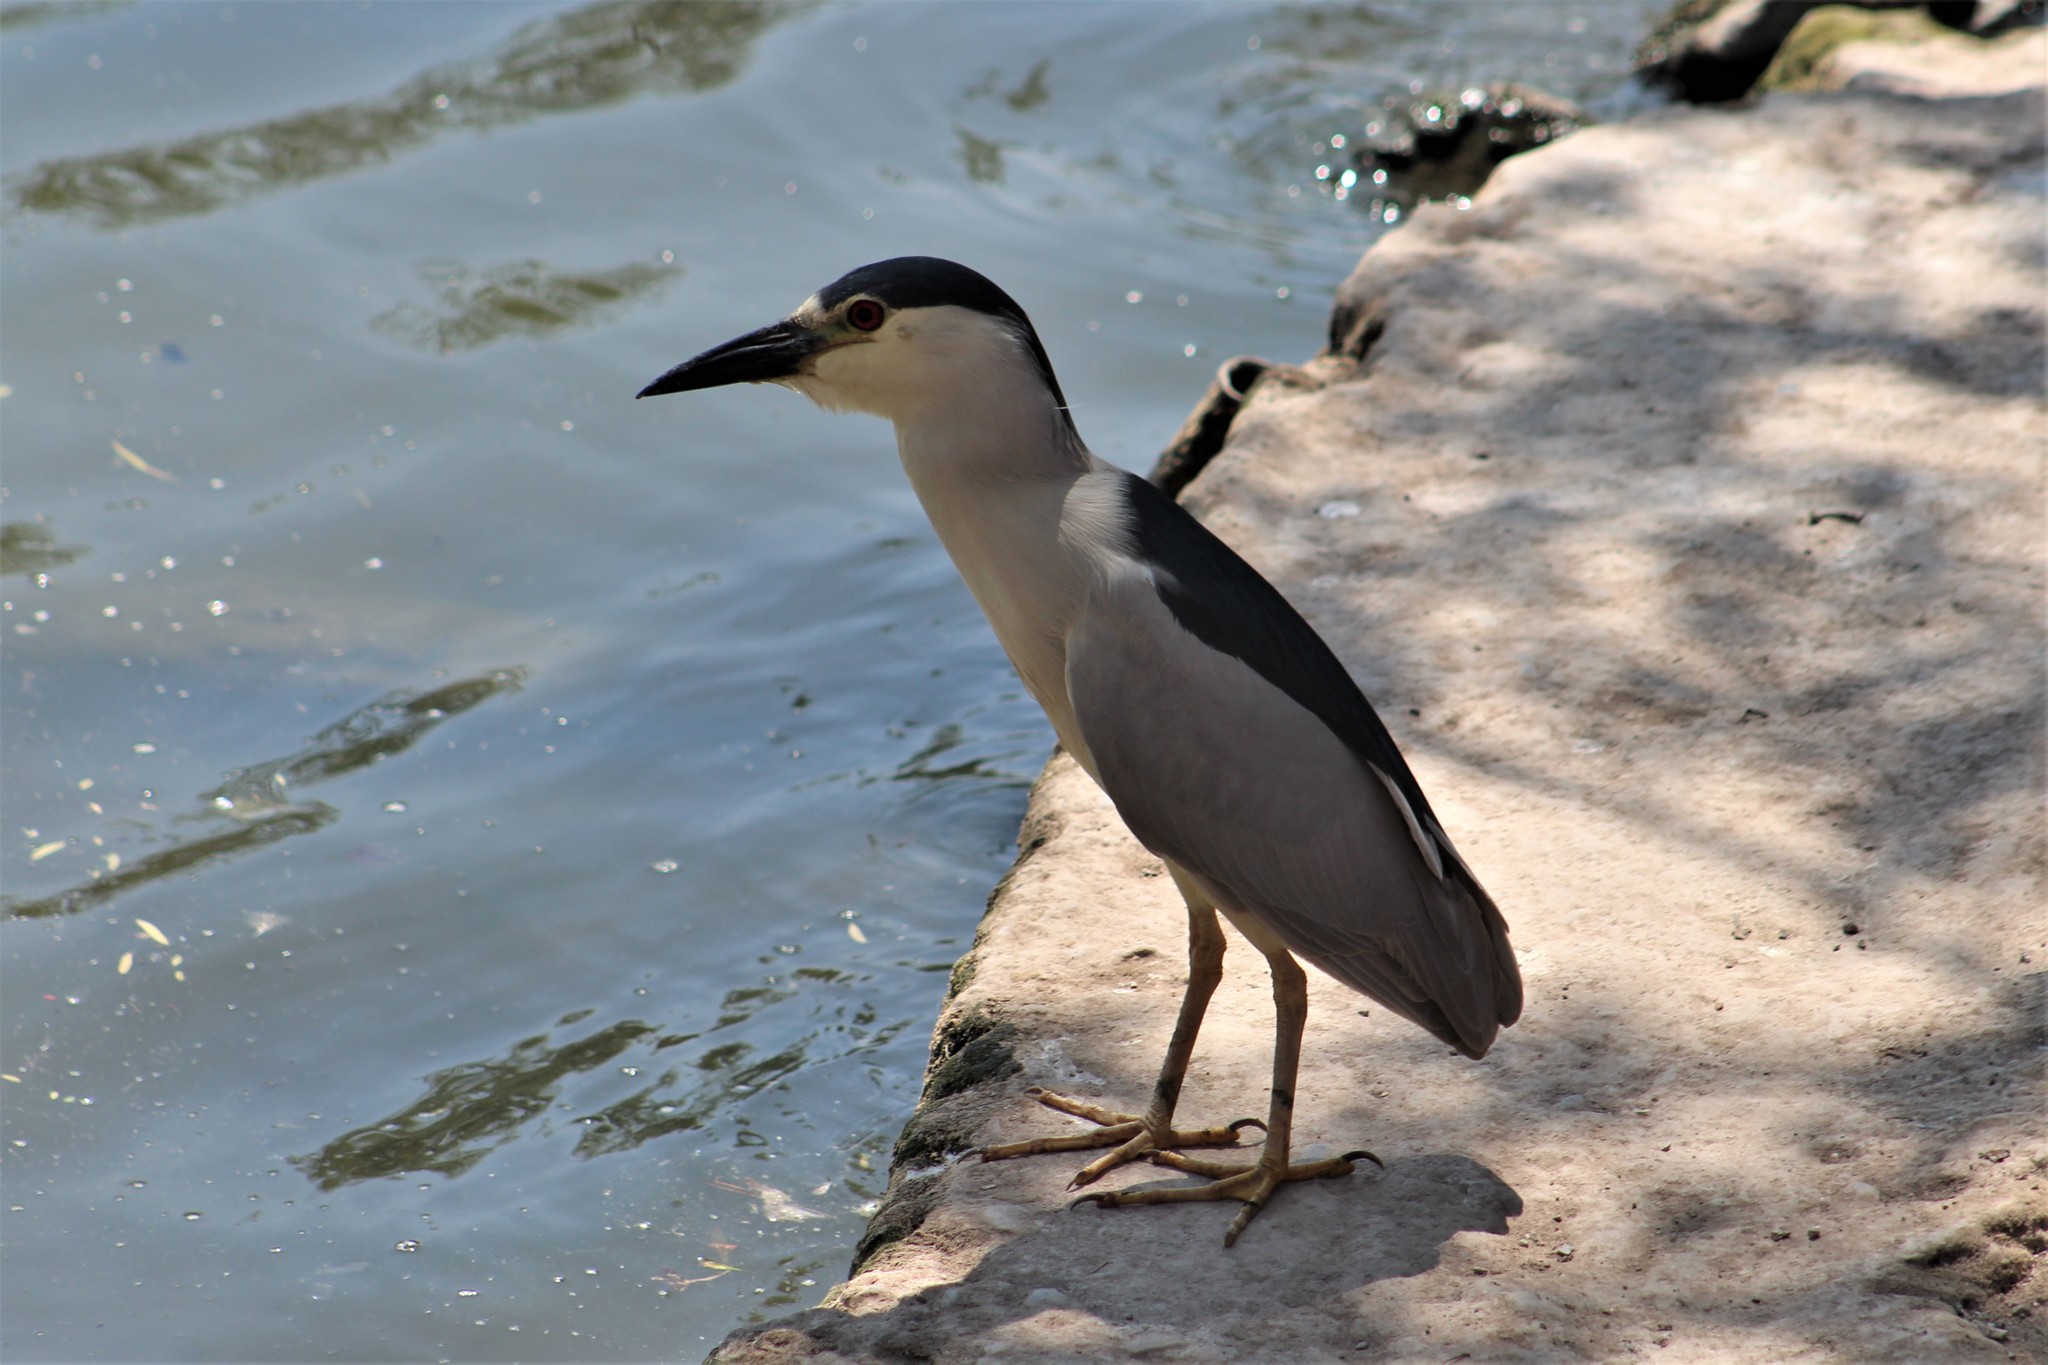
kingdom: Animalia
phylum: Chordata
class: Aves
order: Pelecaniformes
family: Ardeidae
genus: Nycticorax
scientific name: Nycticorax nycticorax
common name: Black-crowned night heron
